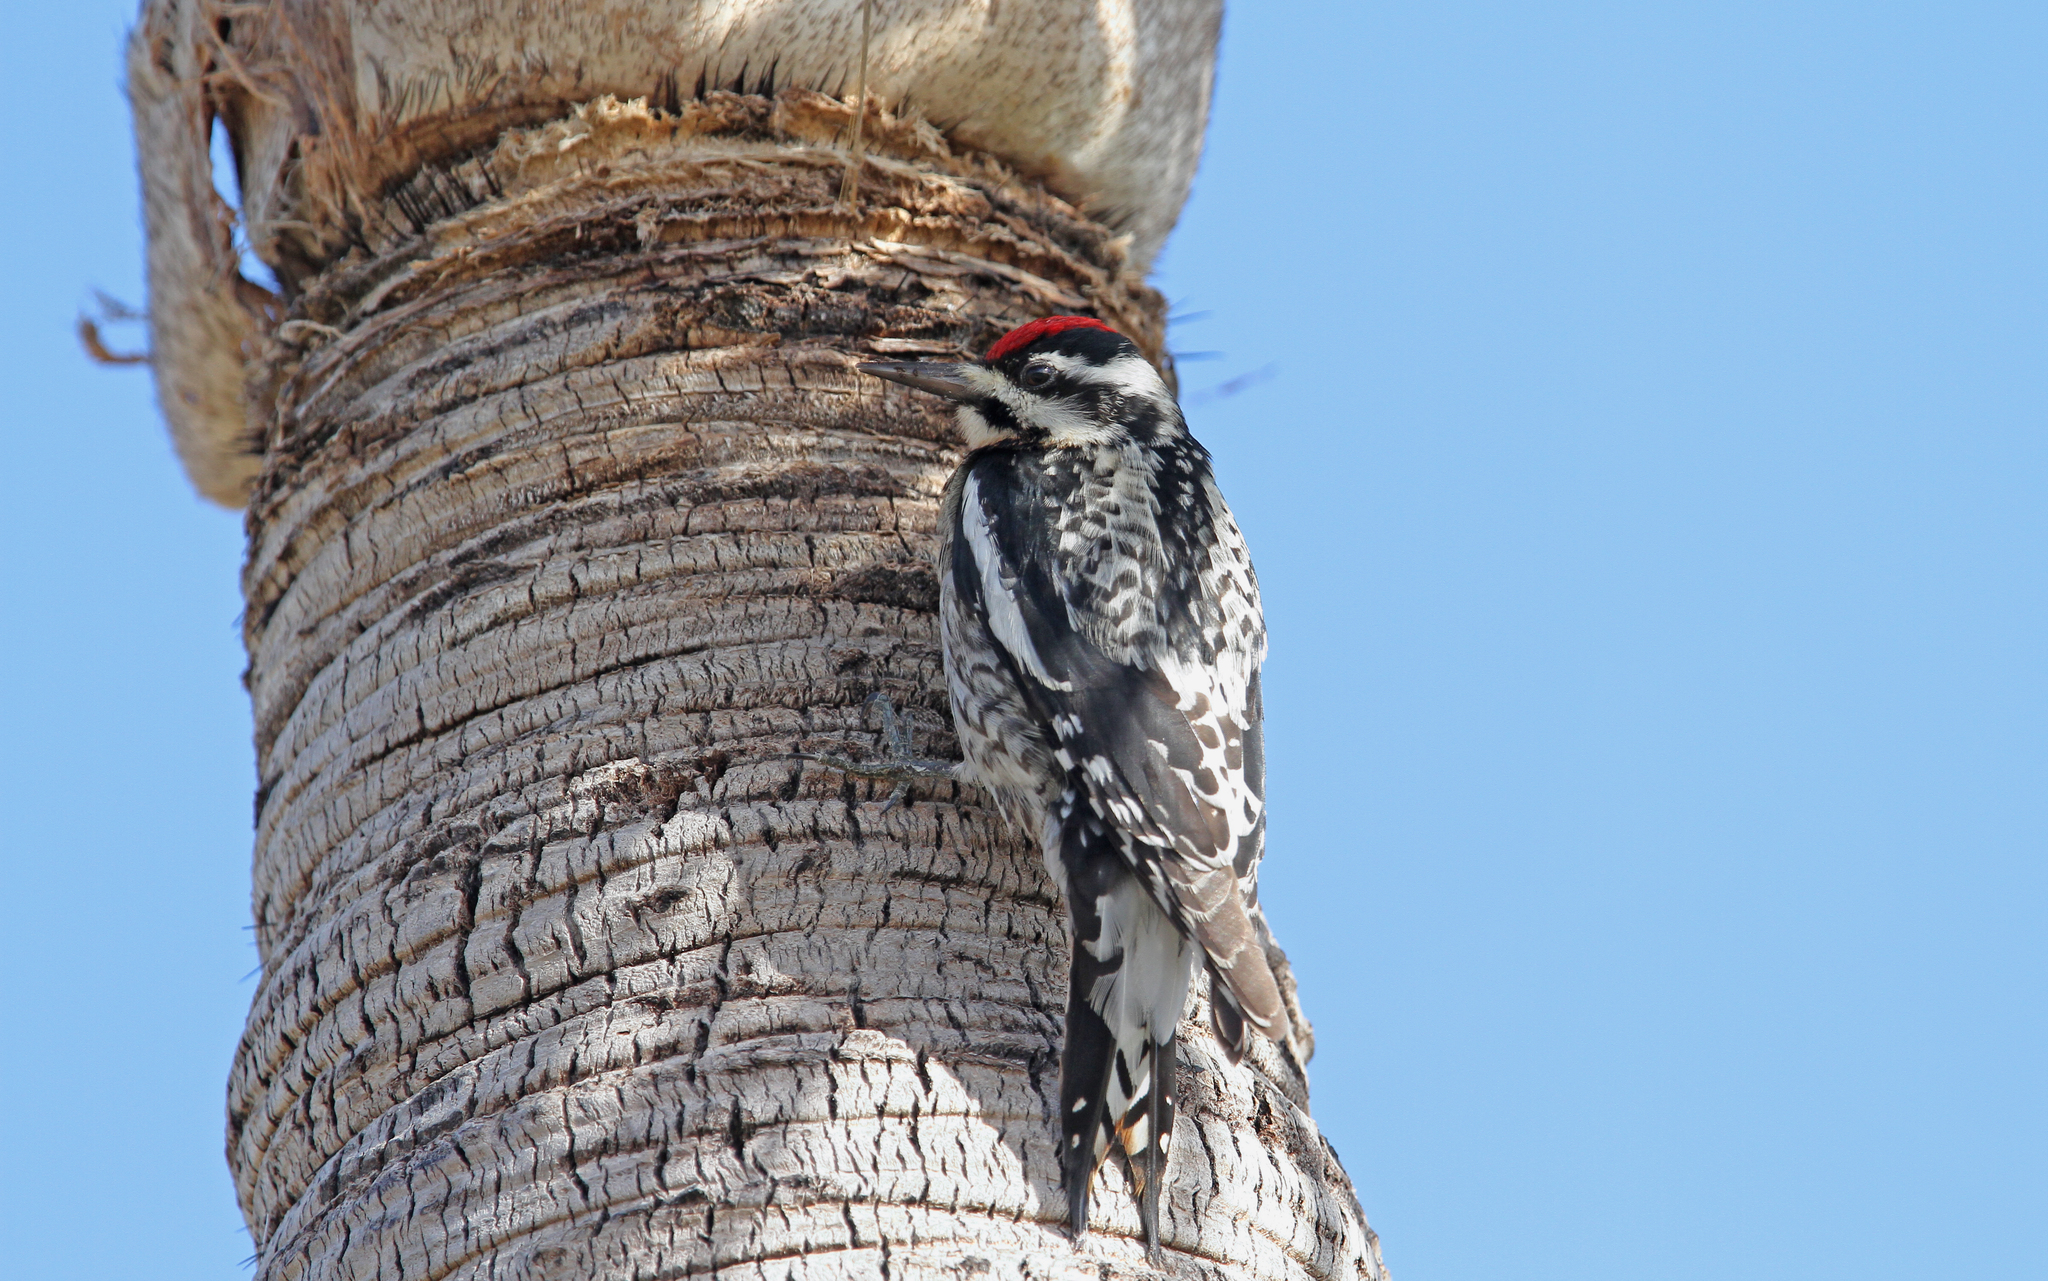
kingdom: Animalia
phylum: Chordata
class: Aves
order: Piciformes
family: Picidae
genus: Sphyrapicus
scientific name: Sphyrapicus varius
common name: Yellow-bellied sapsucker
